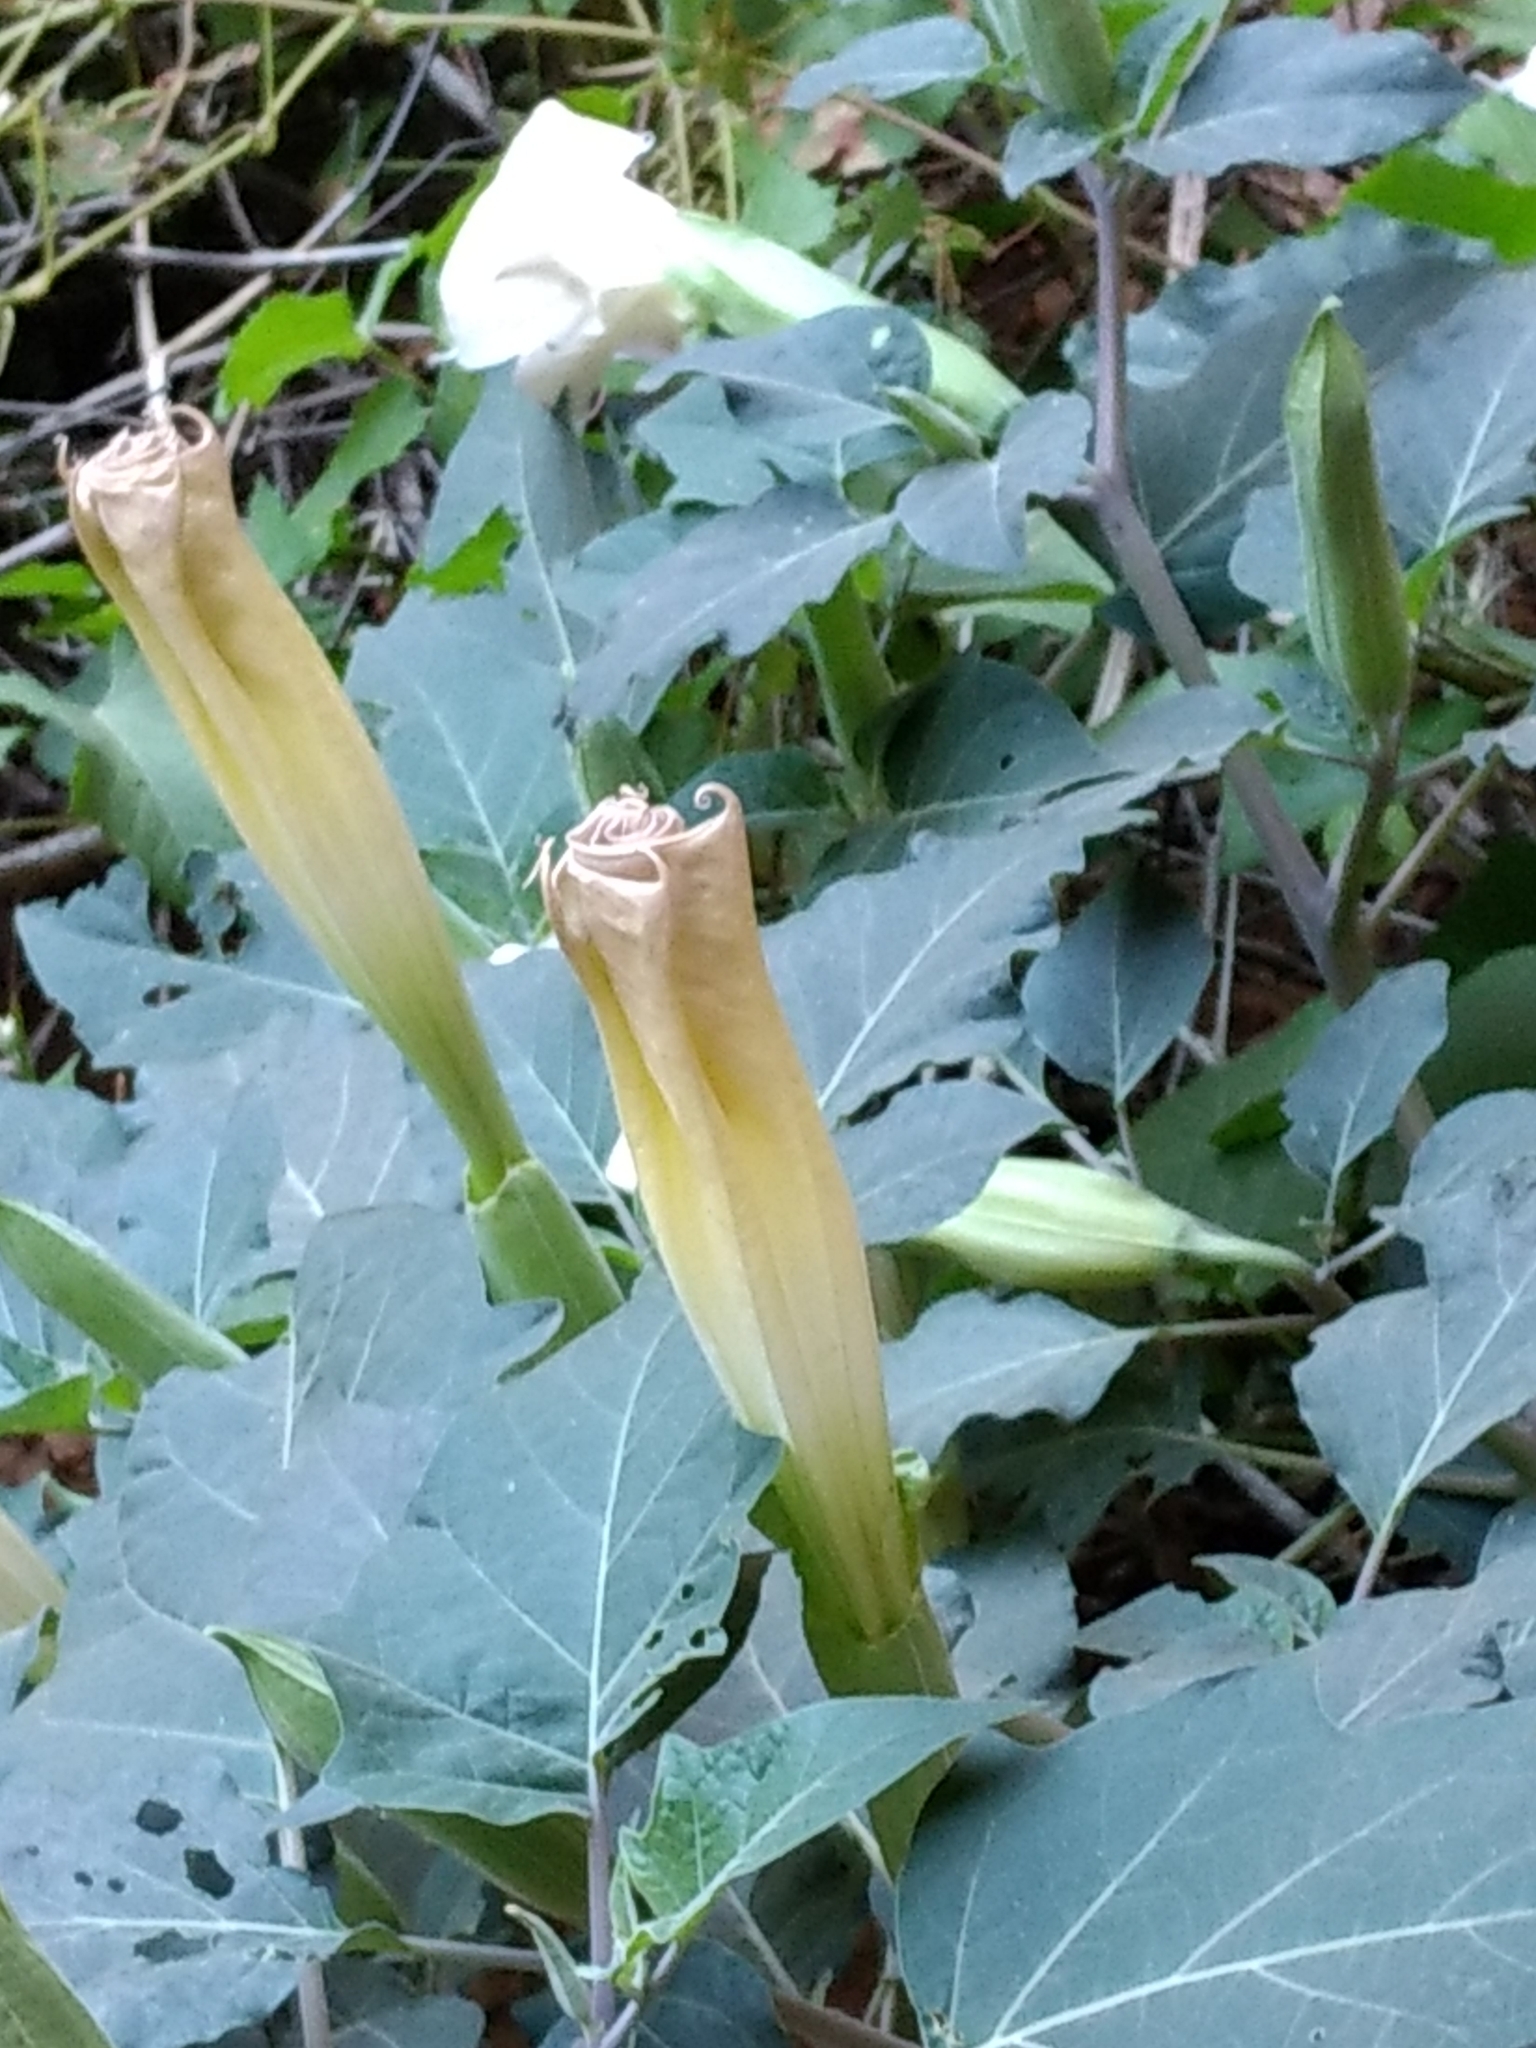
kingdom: Plantae
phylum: Tracheophyta
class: Magnoliopsida
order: Solanales
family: Solanaceae
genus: Datura
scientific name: Datura wrightii
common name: Sacred thorn-apple
